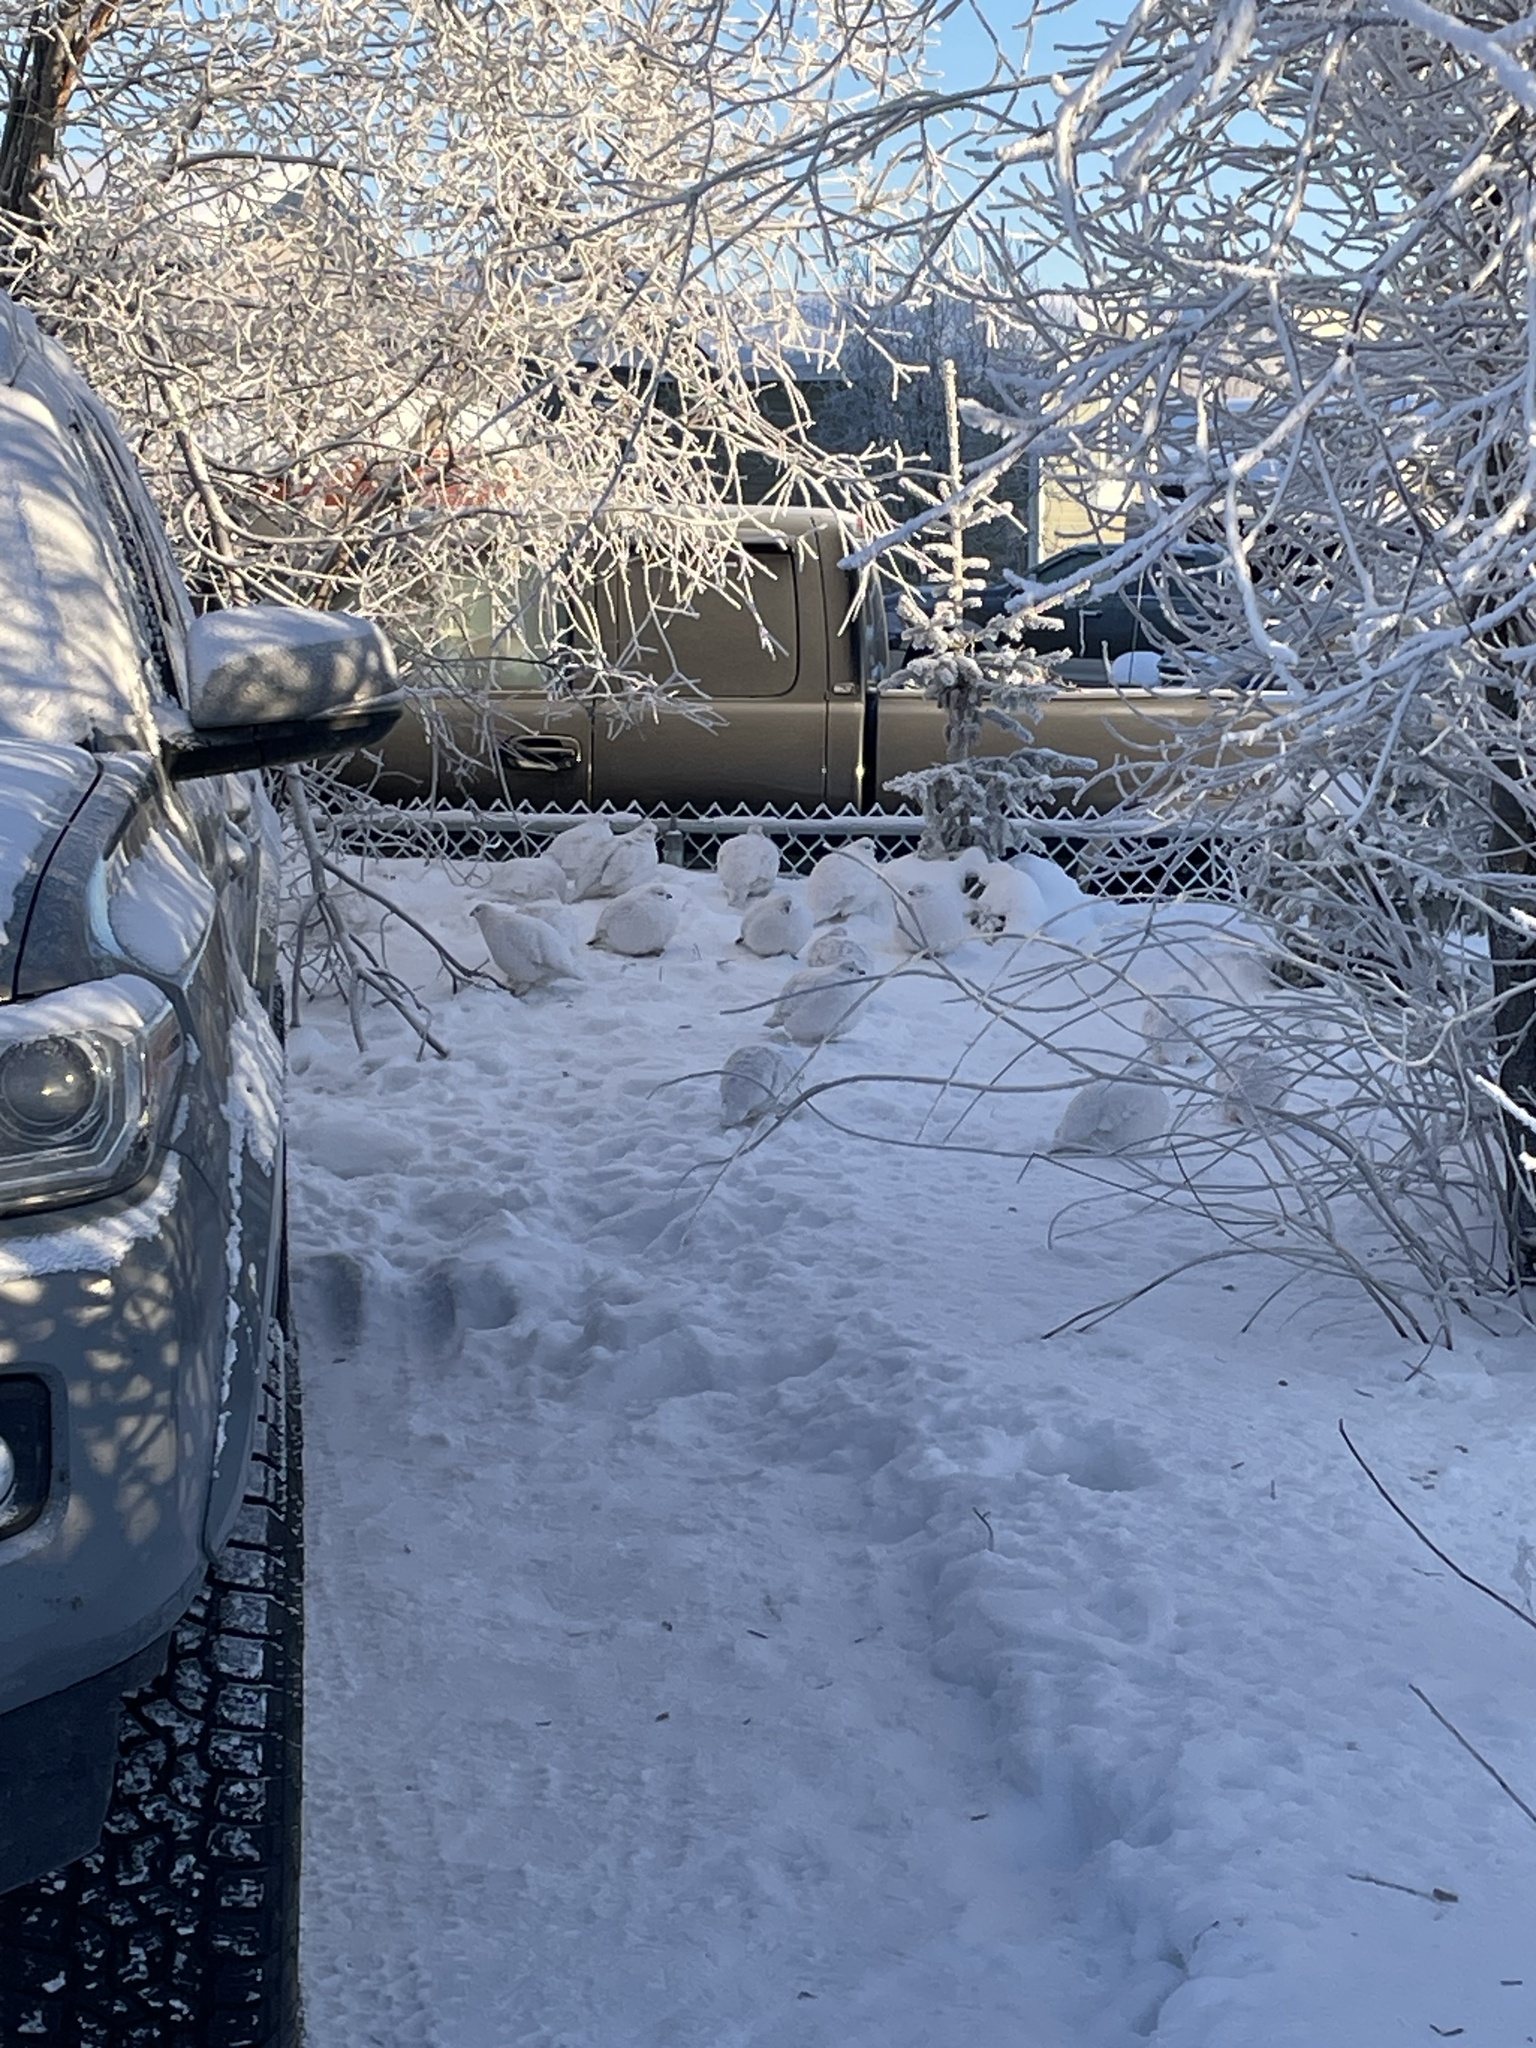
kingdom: Animalia
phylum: Chordata
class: Aves
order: Galliformes
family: Phasianidae
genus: Lagopus
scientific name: Lagopus lagopus
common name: Willow ptarmigan
